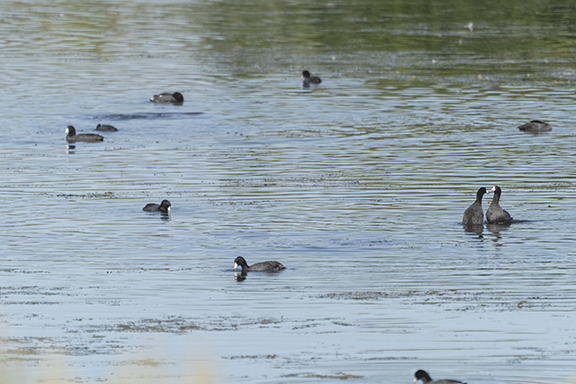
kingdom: Animalia
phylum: Chordata
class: Aves
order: Gruiformes
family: Rallidae
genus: Fulica
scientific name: Fulica americana
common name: American coot
